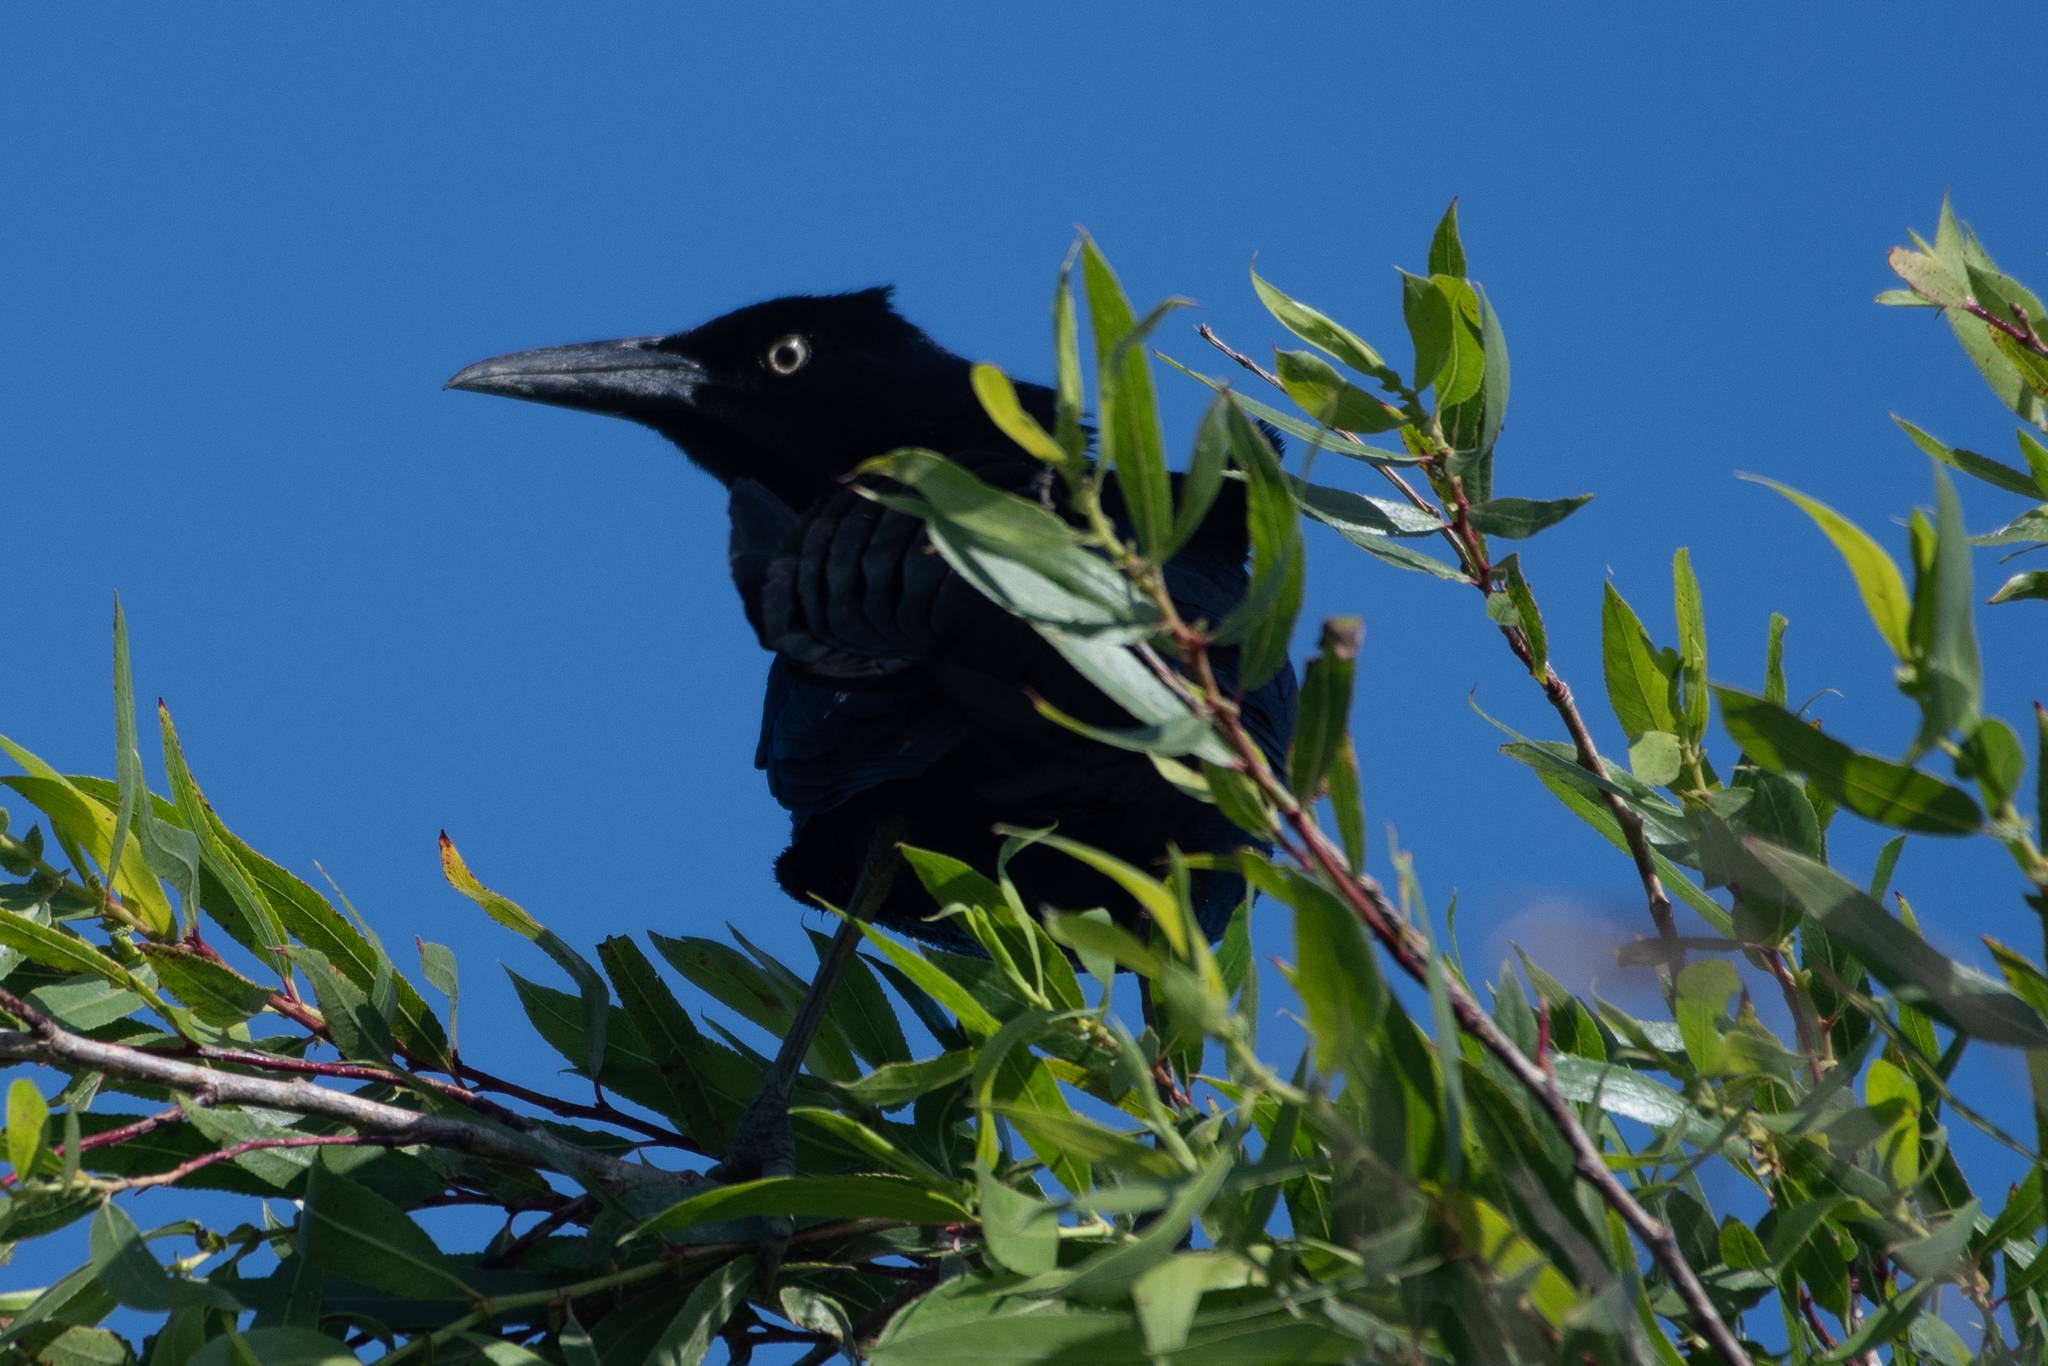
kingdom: Animalia
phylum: Chordata
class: Aves
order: Passeriformes
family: Icteridae
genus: Quiscalus
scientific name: Quiscalus mexicanus
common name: Great-tailed grackle
